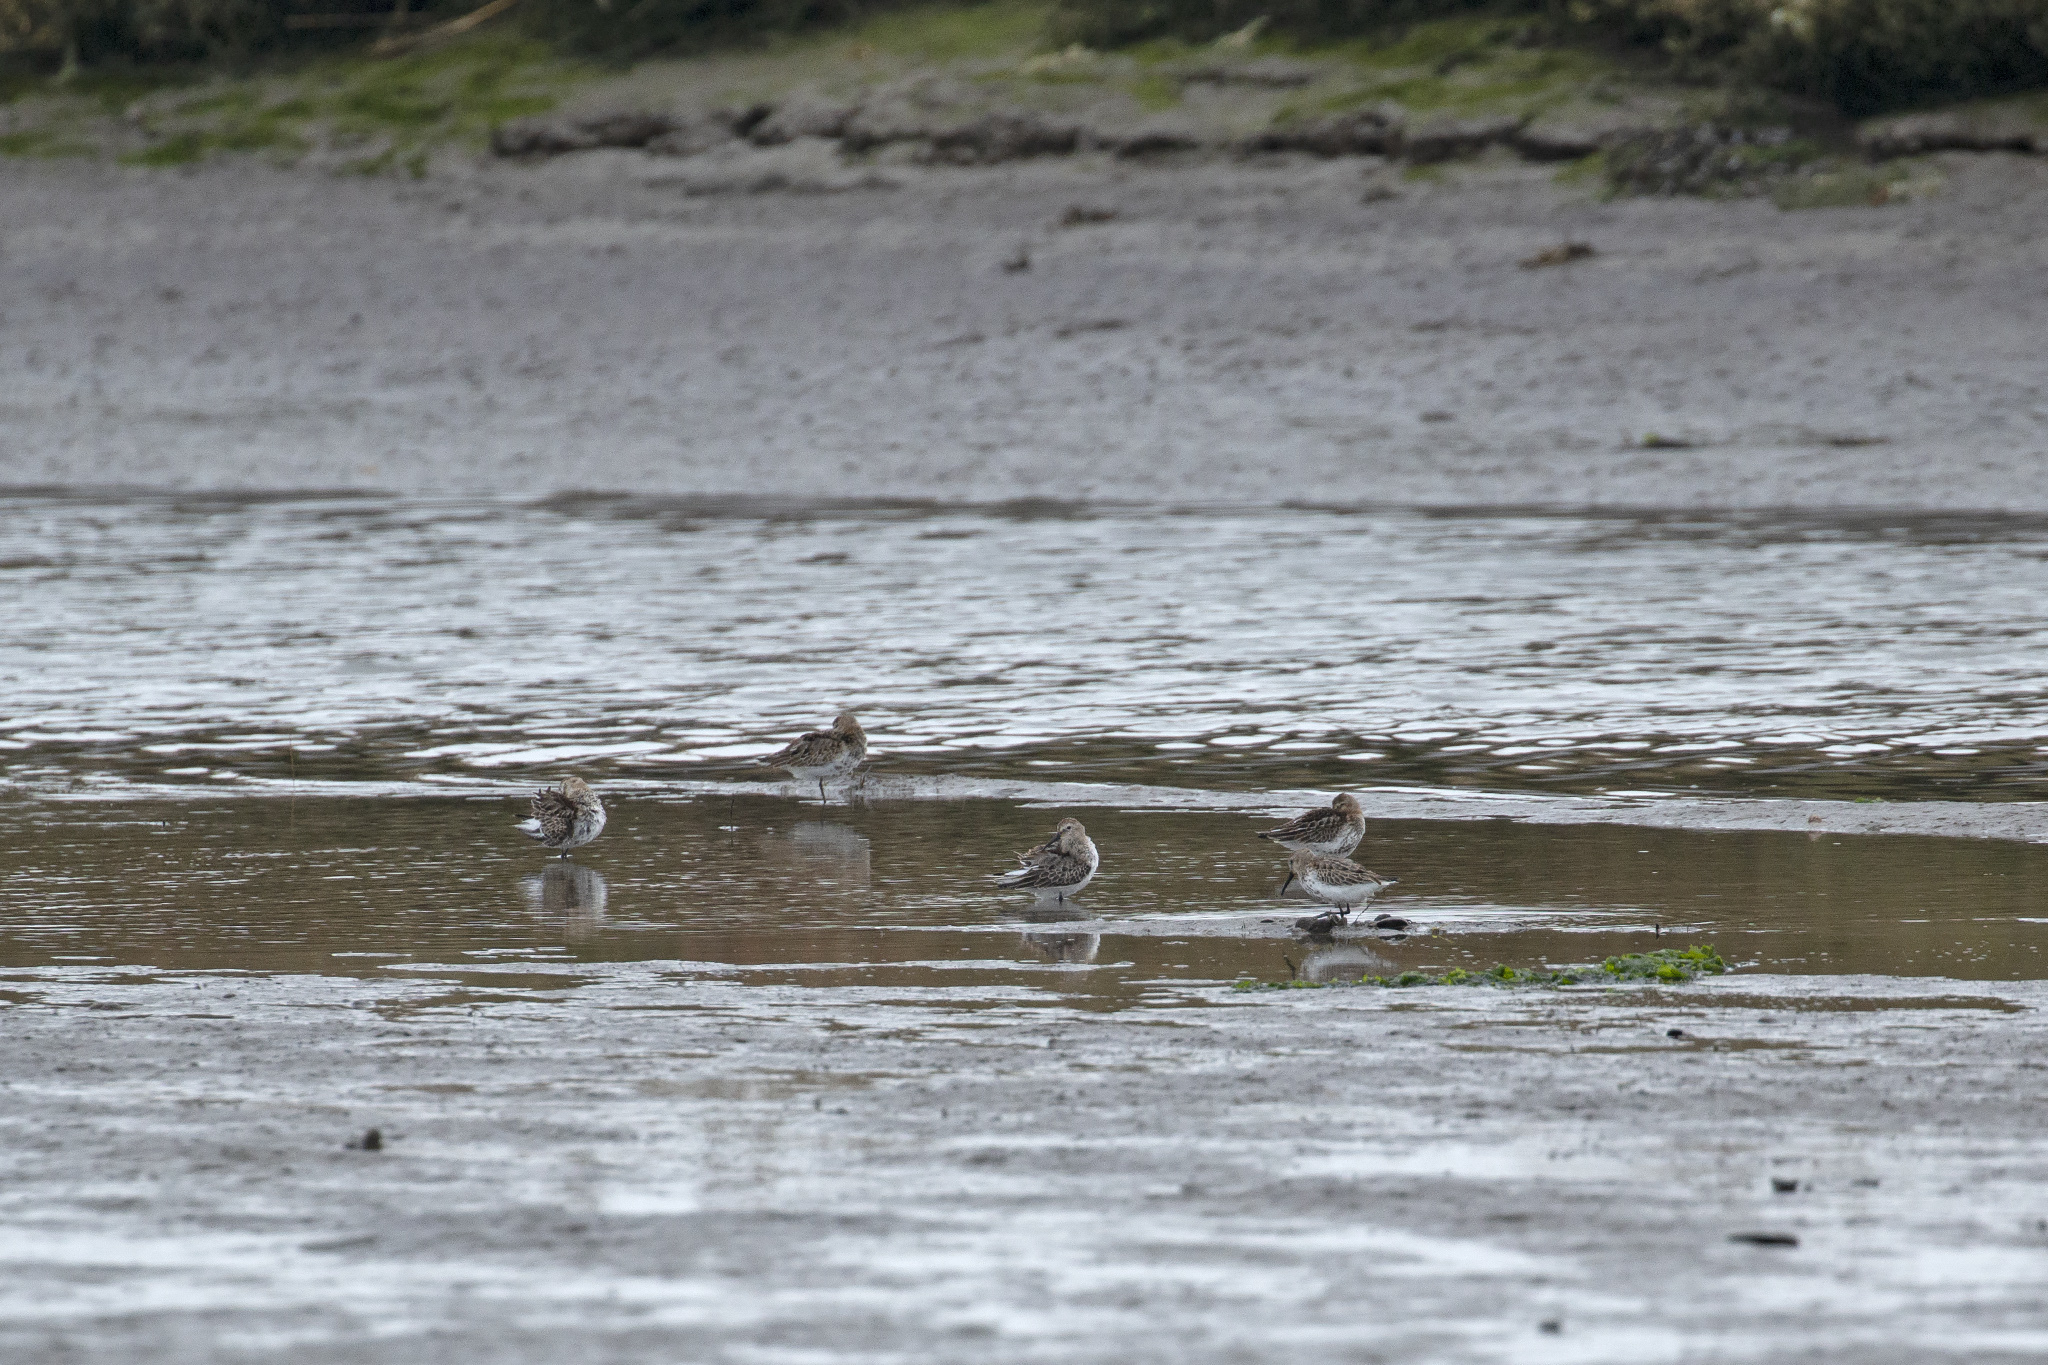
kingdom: Animalia
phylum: Chordata
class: Aves
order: Charadriiformes
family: Scolopacidae
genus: Calidris
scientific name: Calidris alpina
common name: Dunlin
